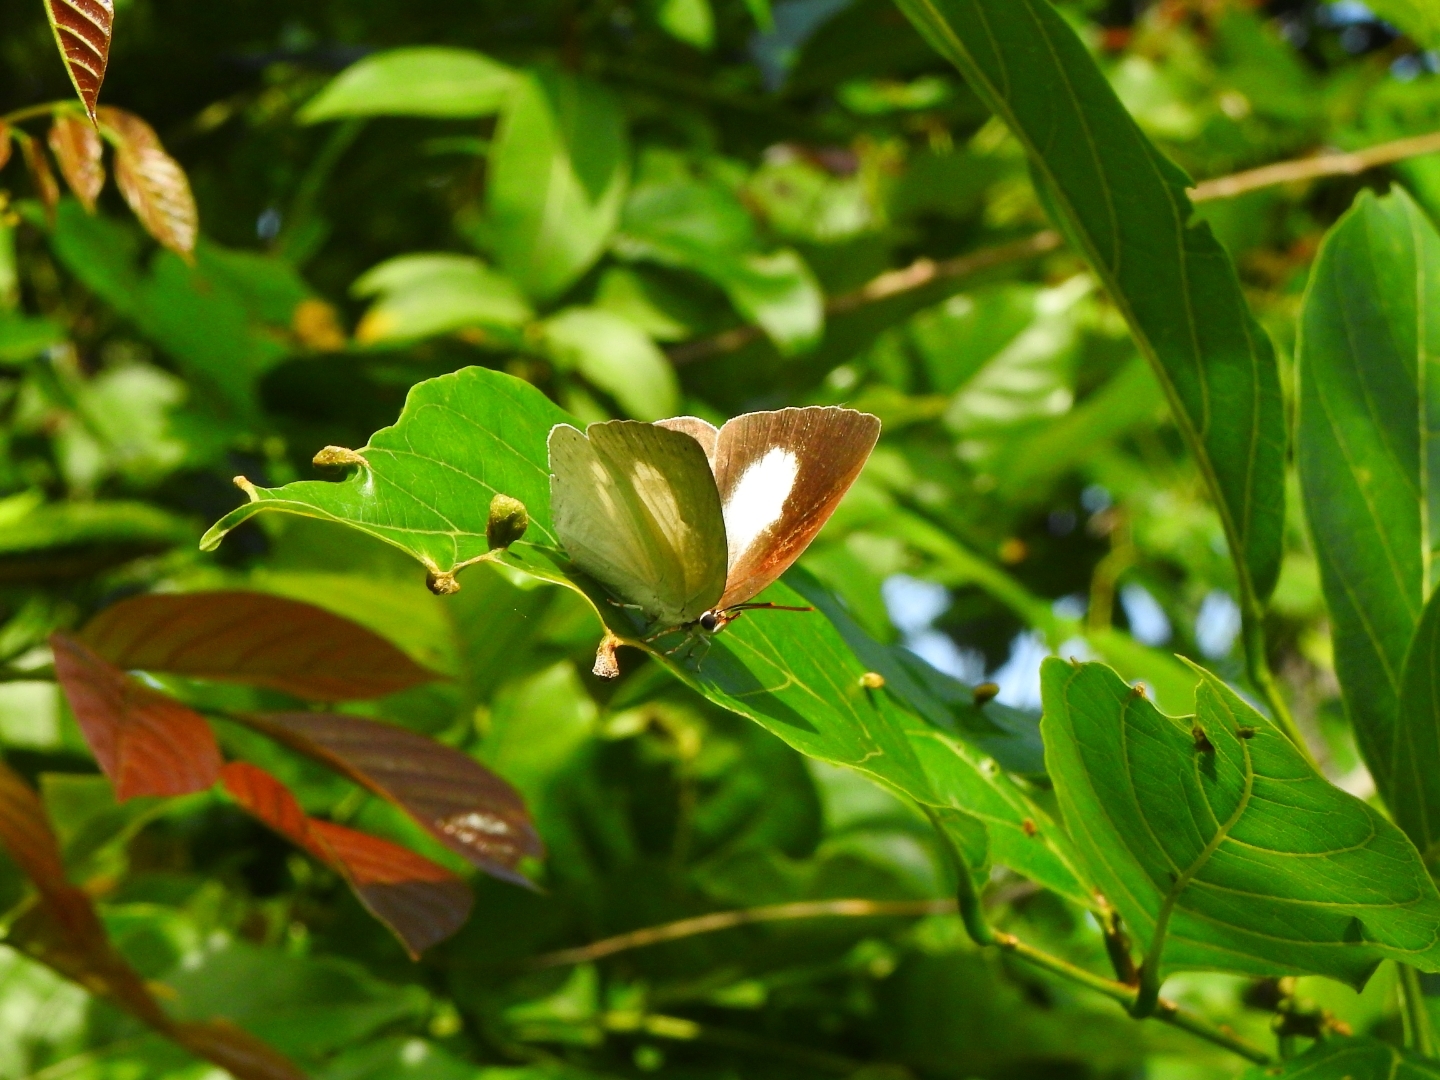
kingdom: Animalia
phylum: Arthropoda
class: Insecta
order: Lepidoptera
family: Lycaenidae
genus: Curetis
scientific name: Curetis thetis
